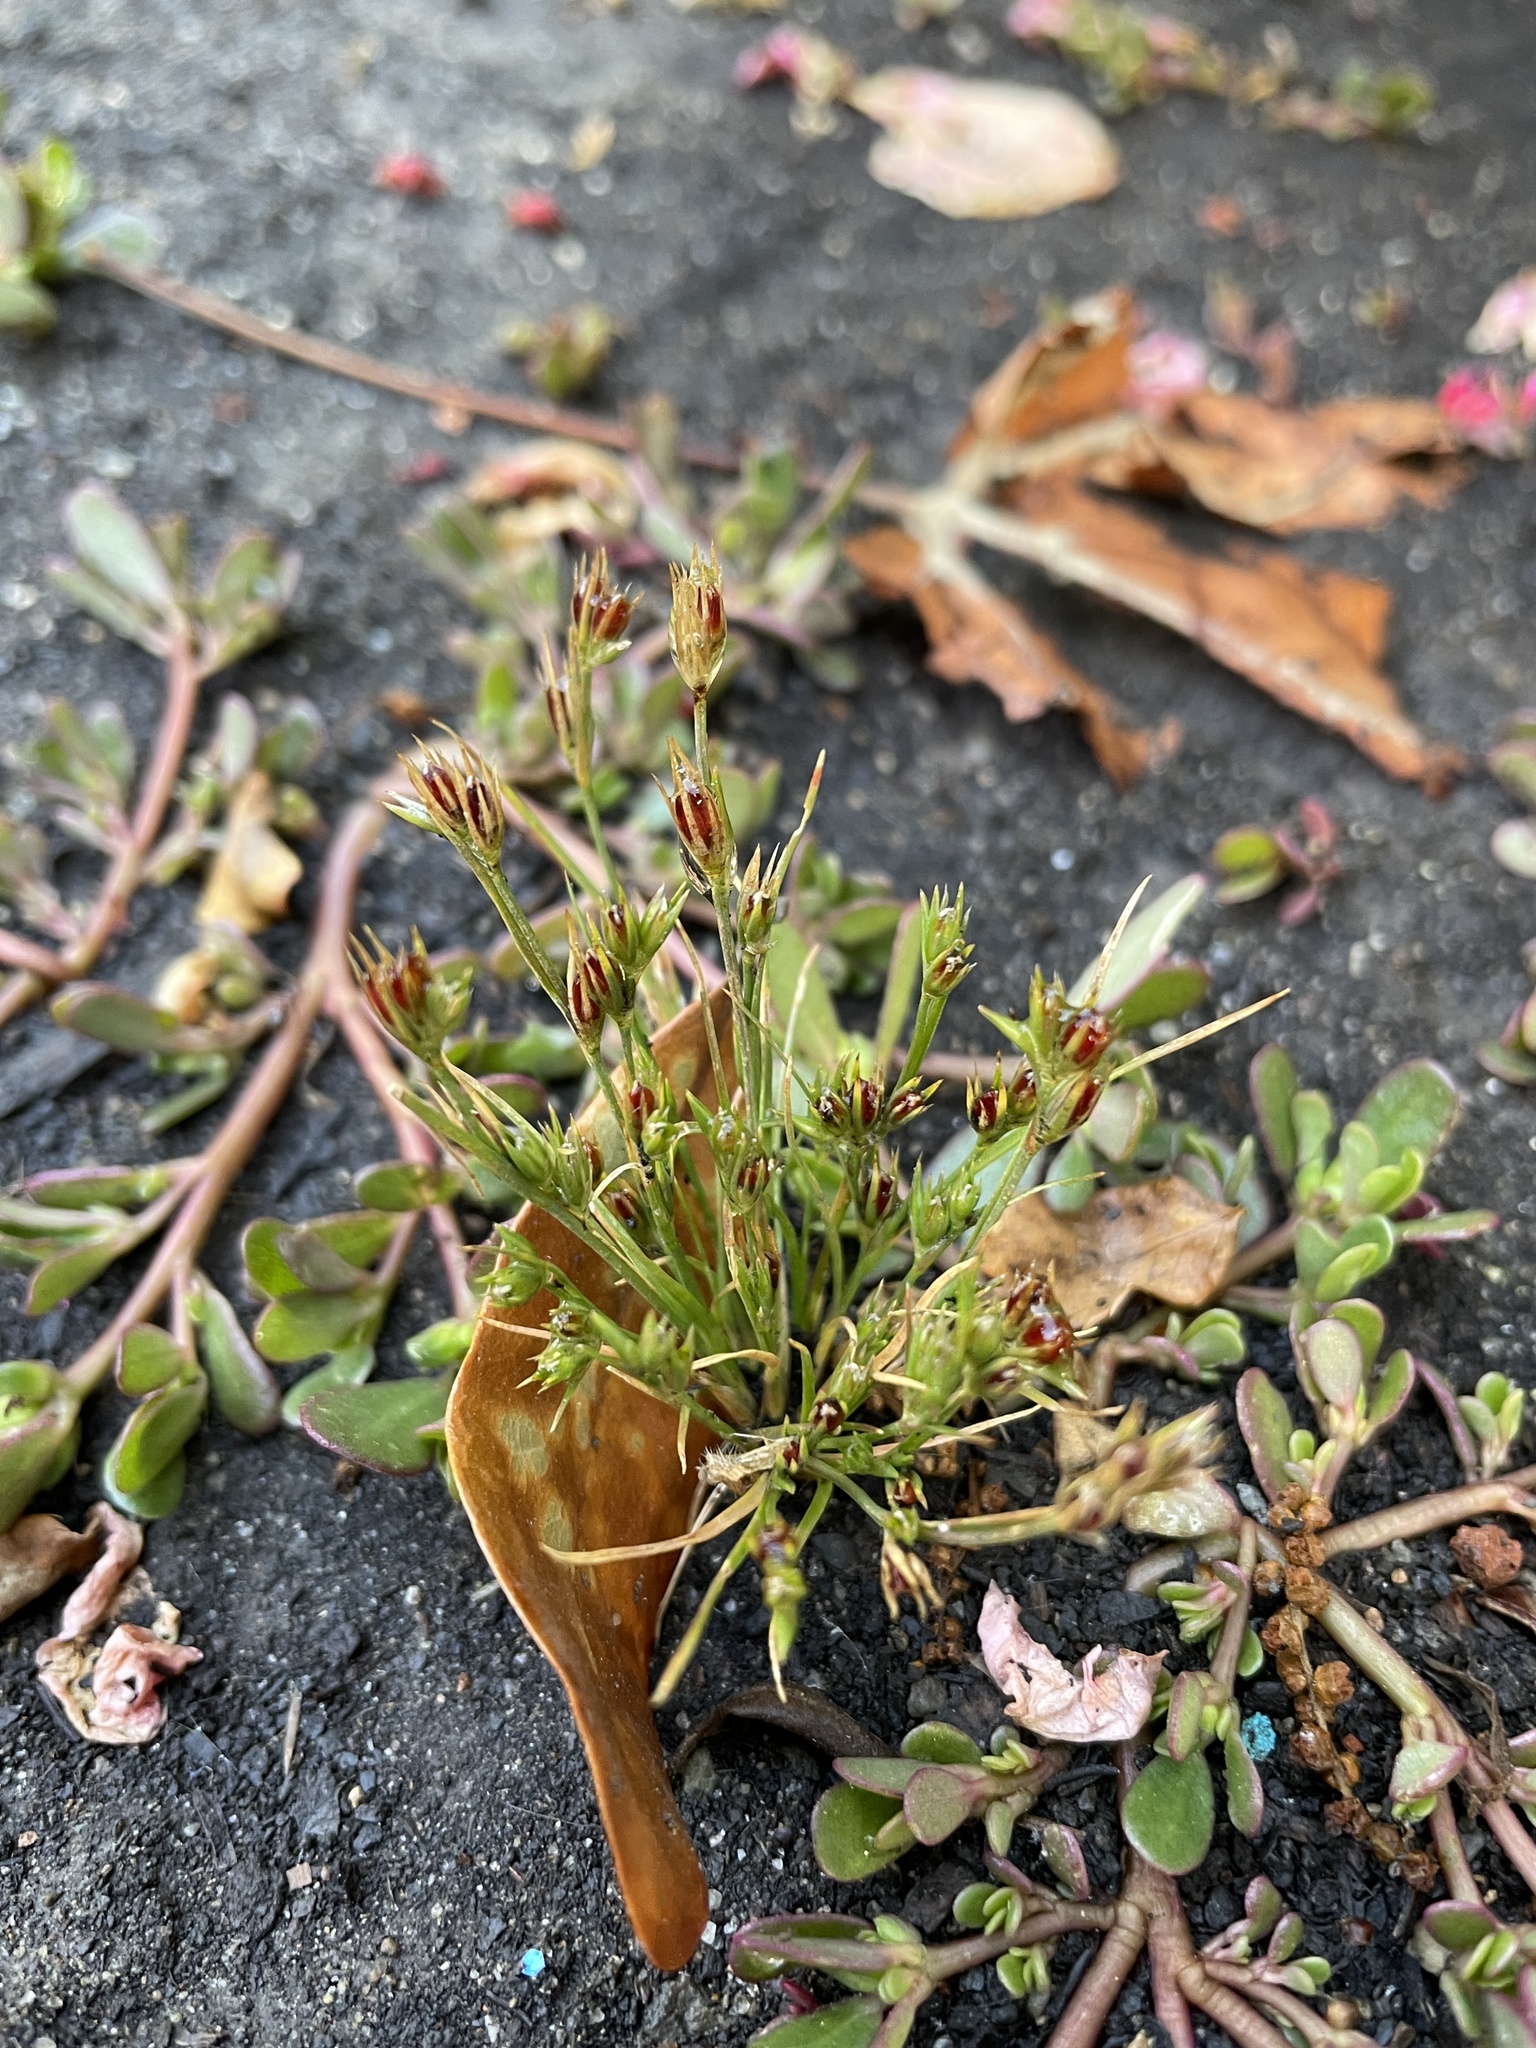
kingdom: Plantae
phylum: Tracheophyta
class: Liliopsida
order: Poales
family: Juncaceae
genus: Juncus
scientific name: Juncus bufonius
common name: Toad rush
